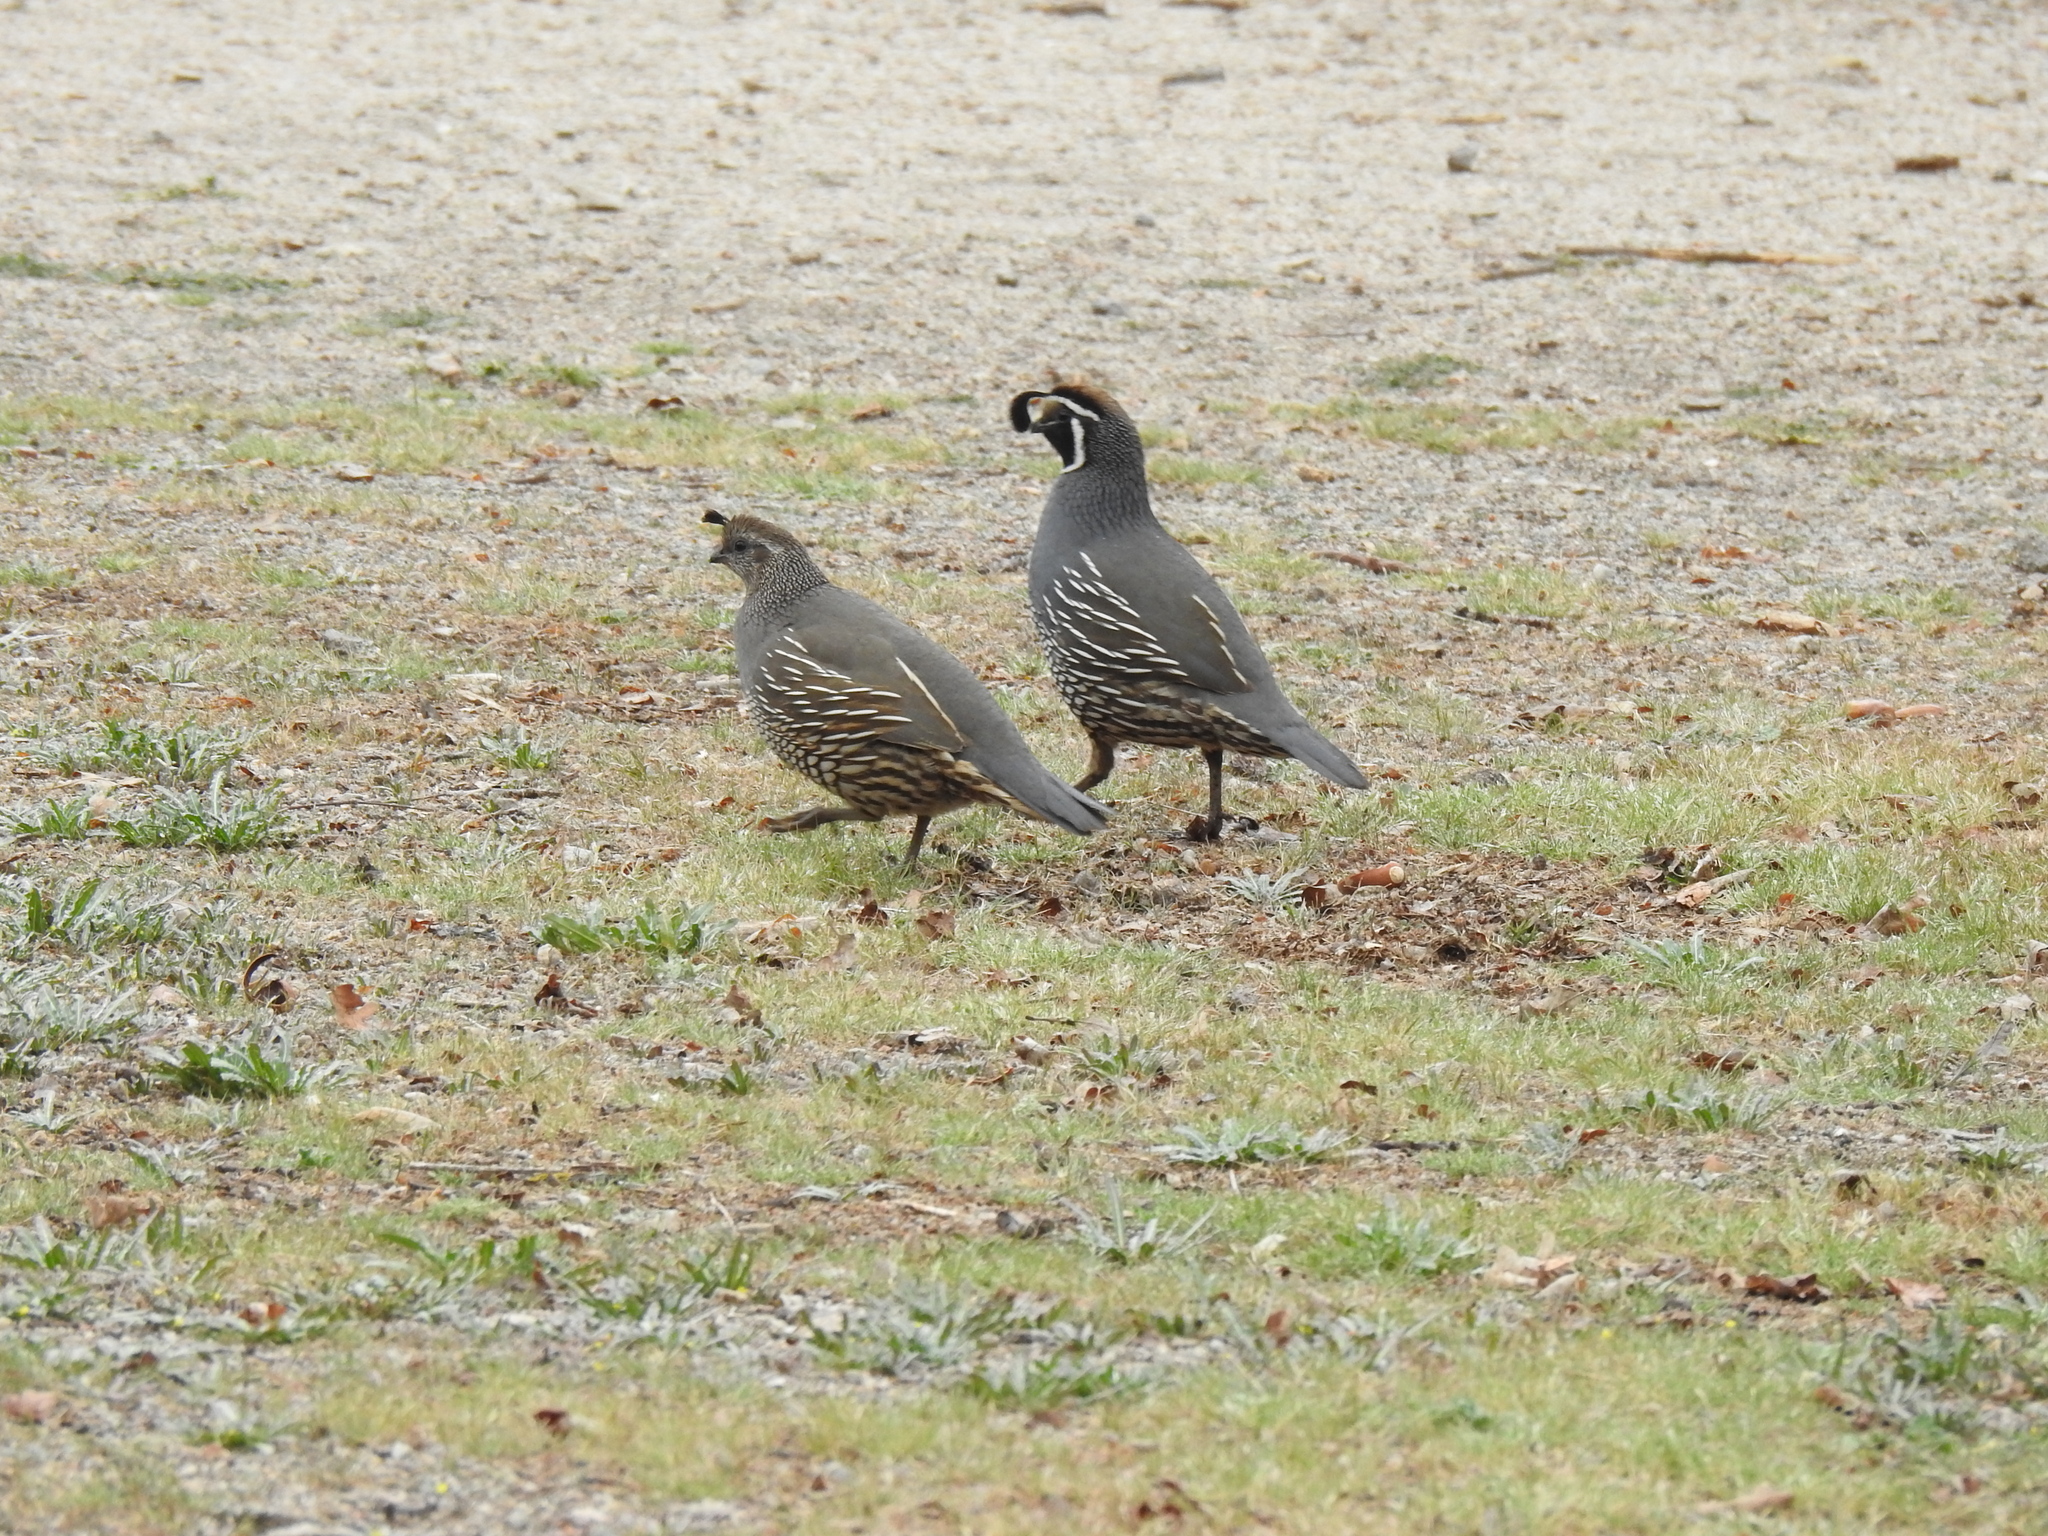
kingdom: Animalia
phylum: Chordata
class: Aves
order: Galliformes
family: Odontophoridae
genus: Callipepla
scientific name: Callipepla californica
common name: California quail
